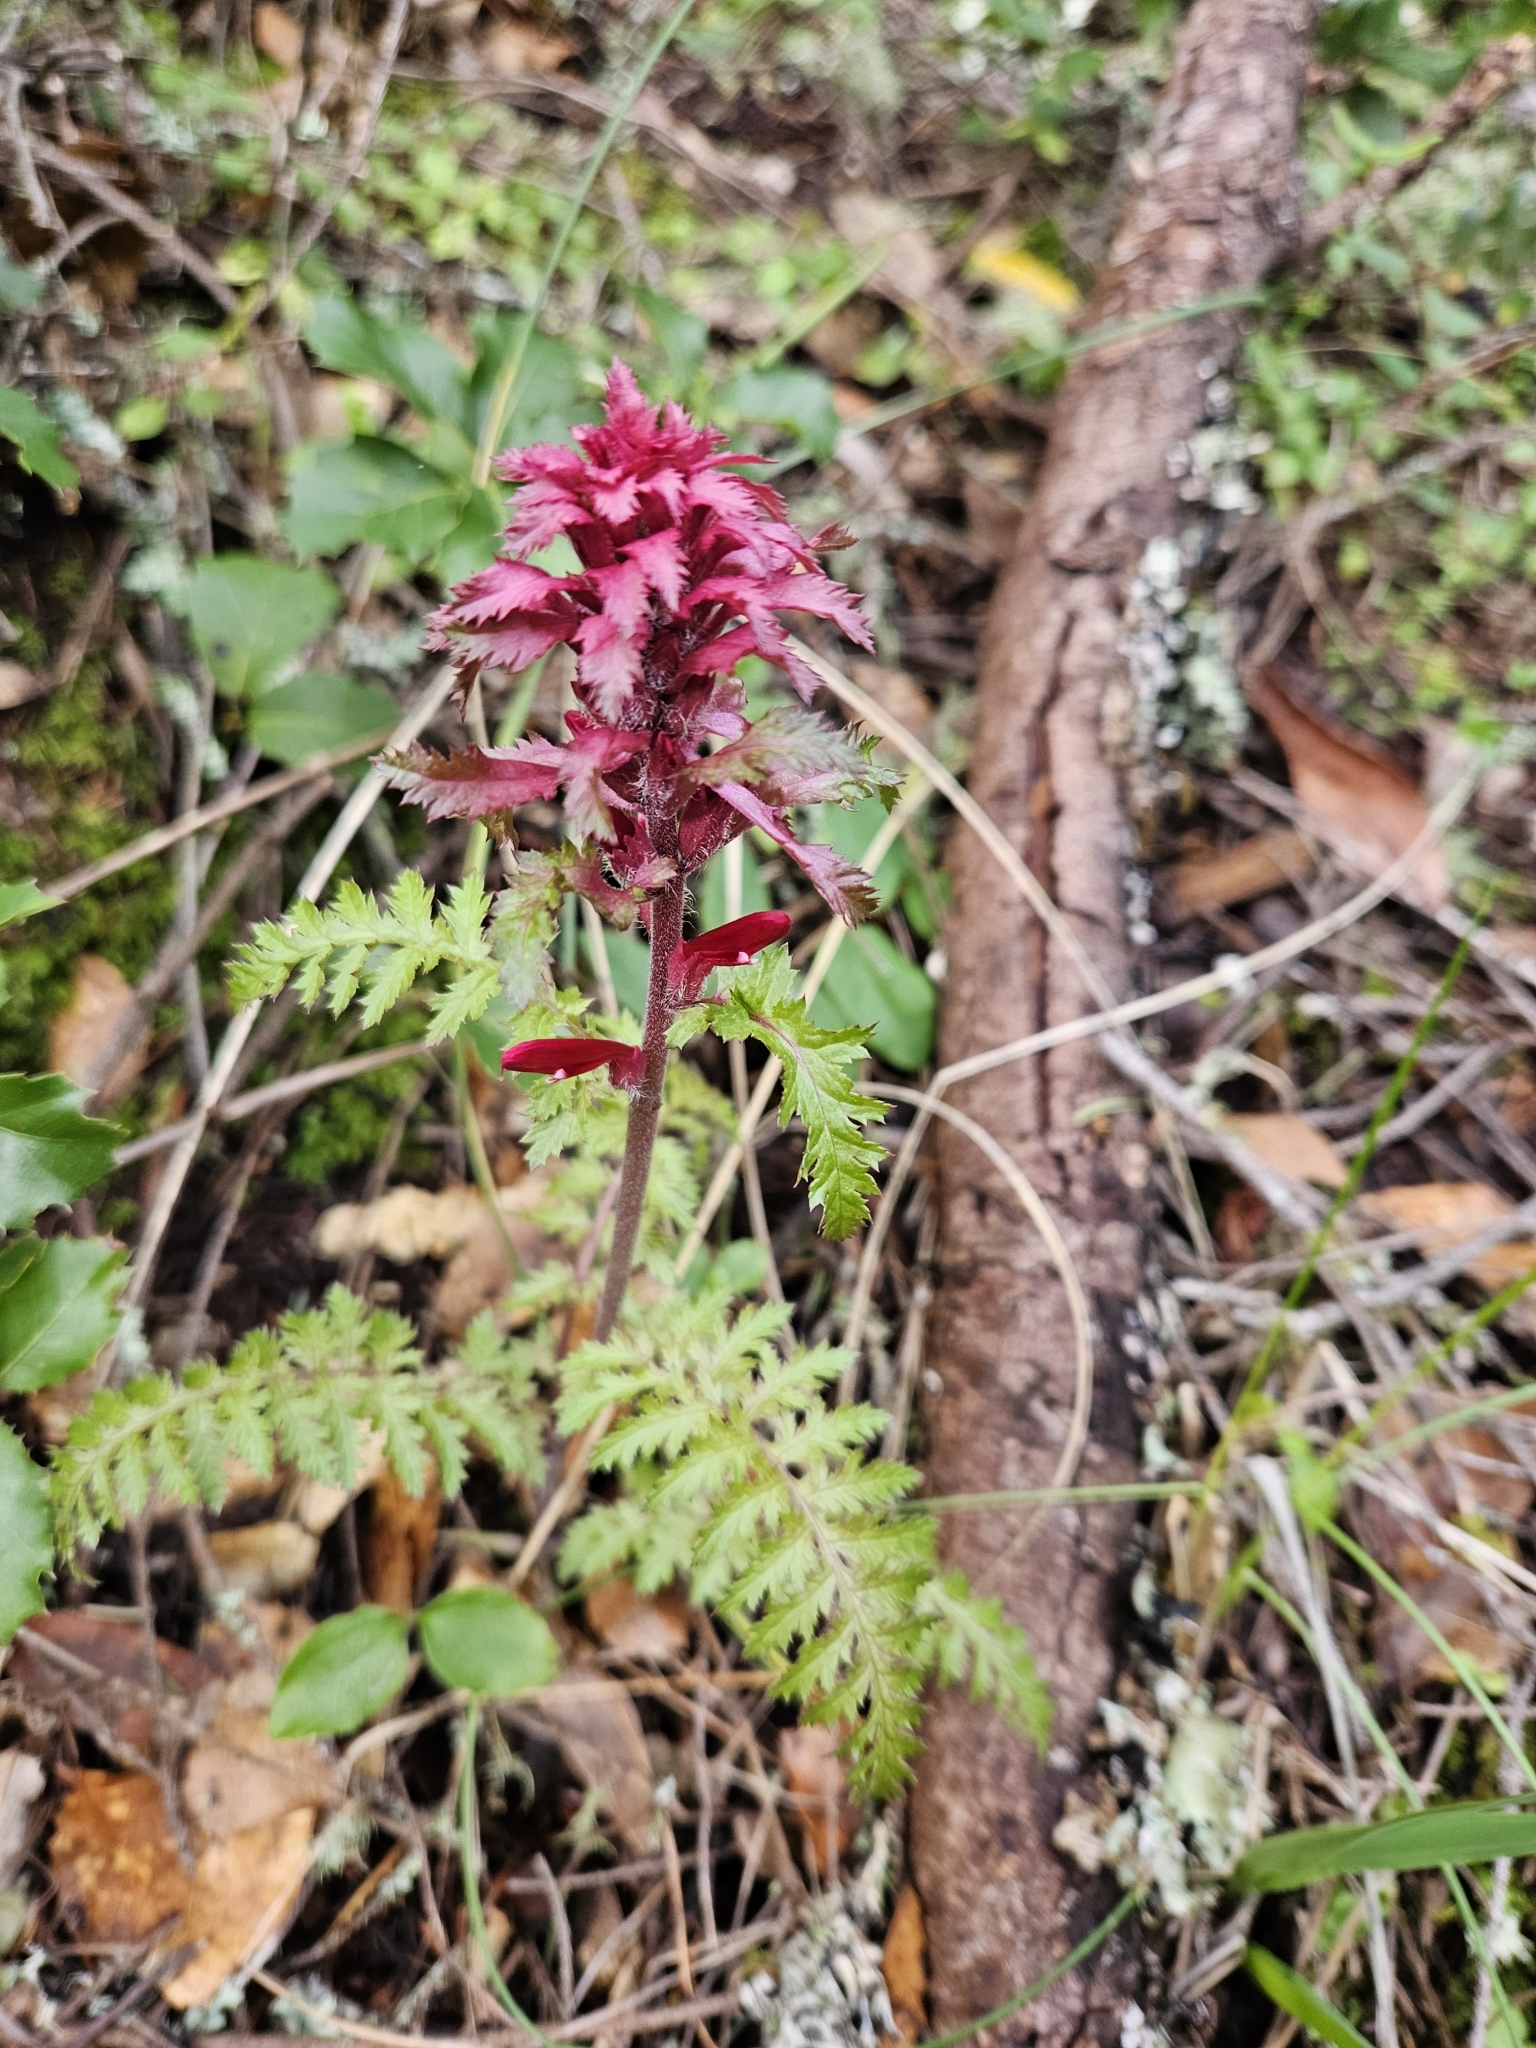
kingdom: Plantae
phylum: Tracheophyta
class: Magnoliopsida
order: Lamiales
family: Orobanchaceae
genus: Pedicularis
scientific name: Pedicularis densiflora
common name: Indian warrior
